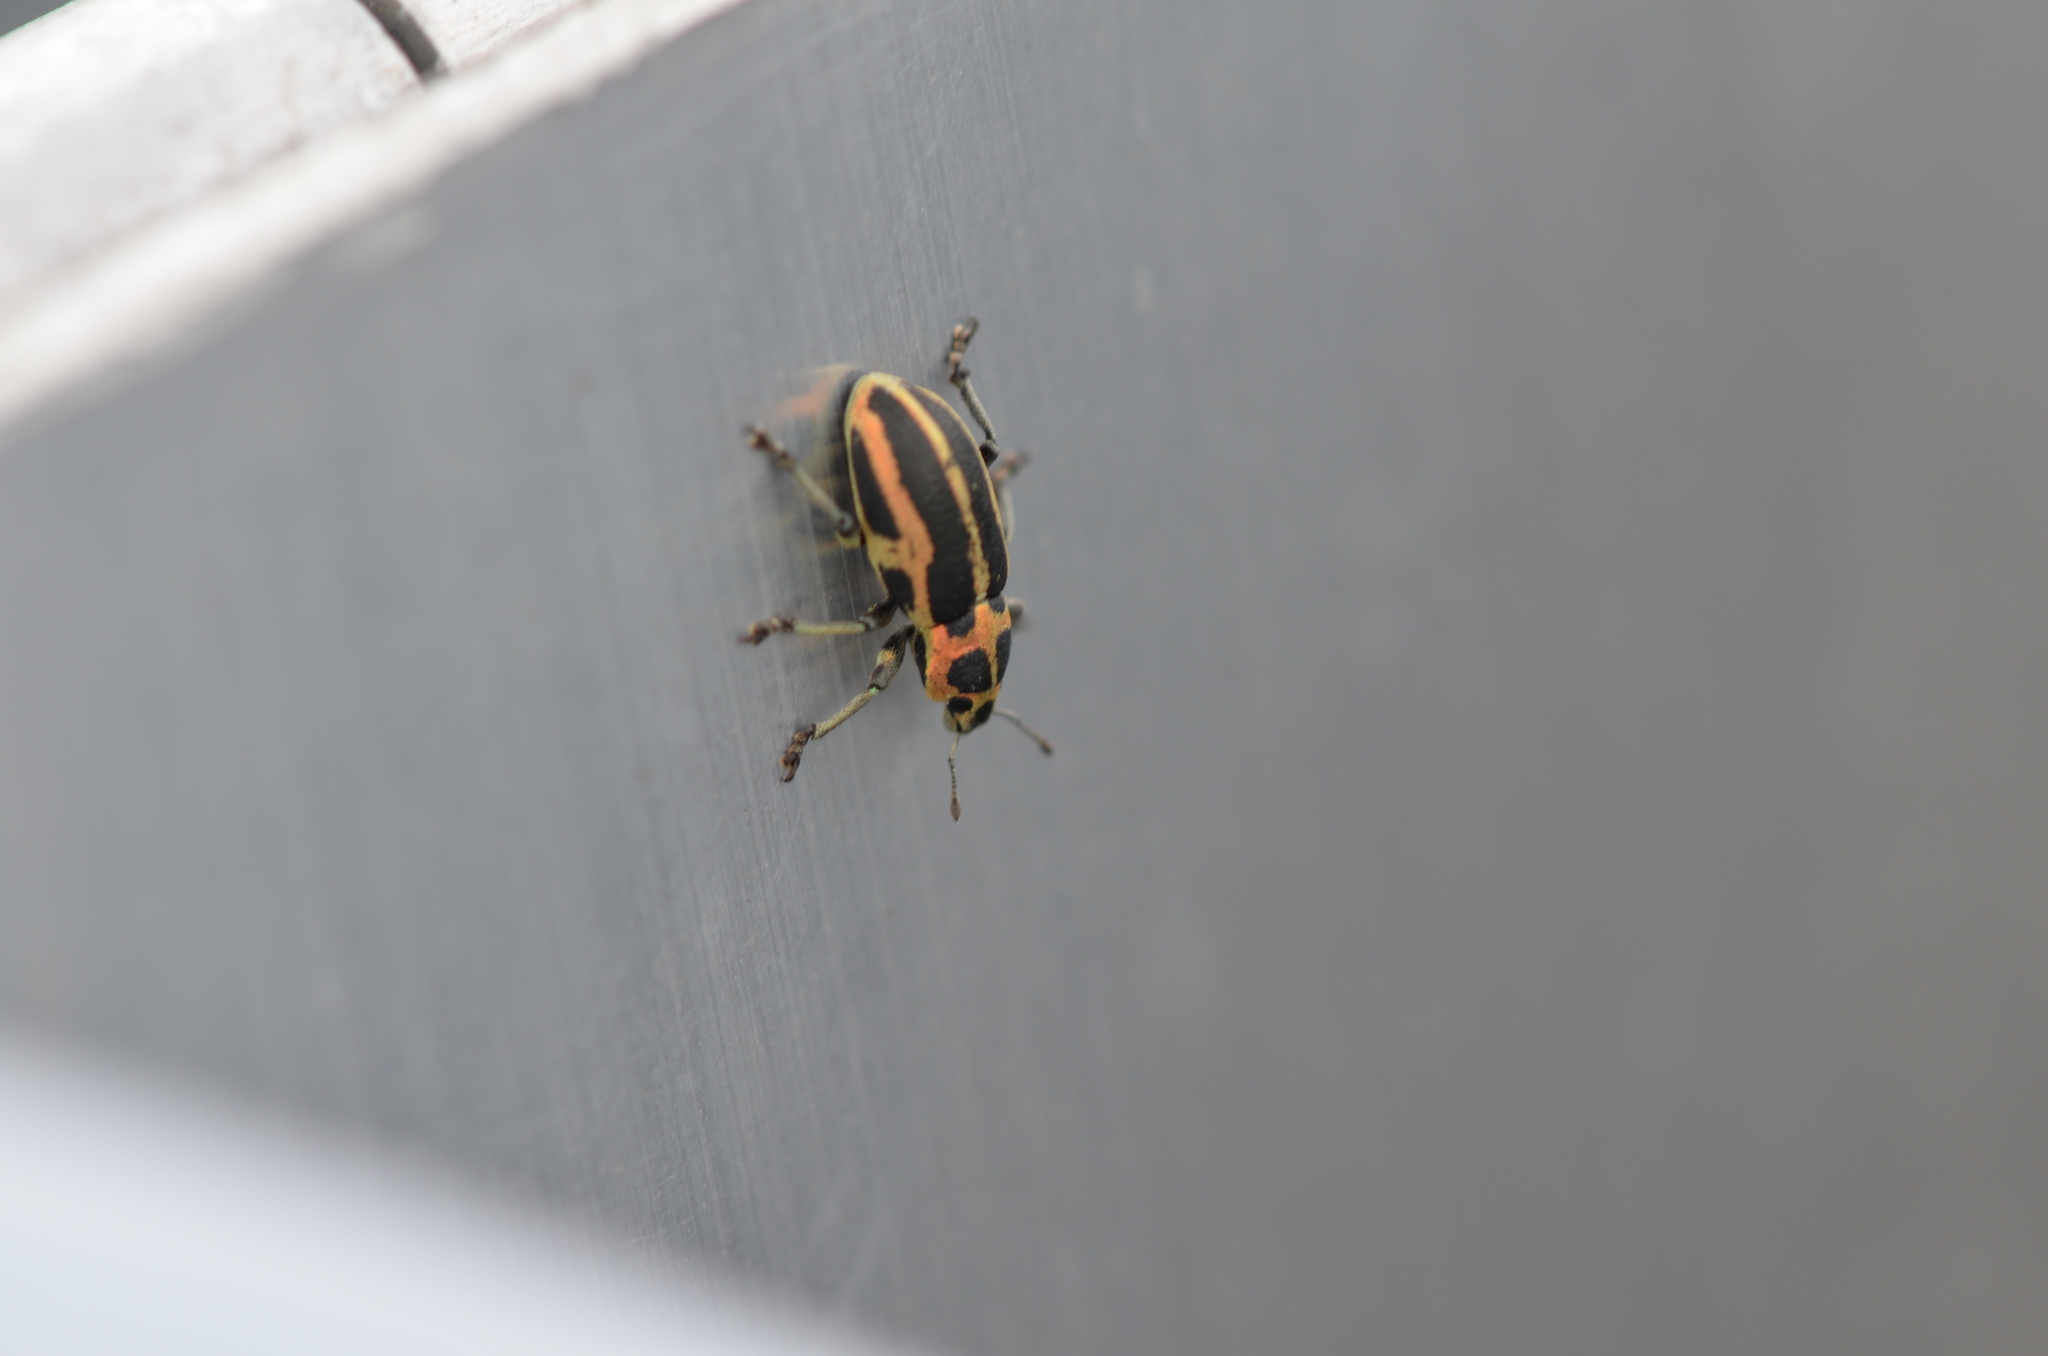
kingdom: Animalia
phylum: Arthropoda
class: Insecta
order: Coleoptera
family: Curculionidae
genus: Eudiagogus
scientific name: Eudiagogus pulcher
